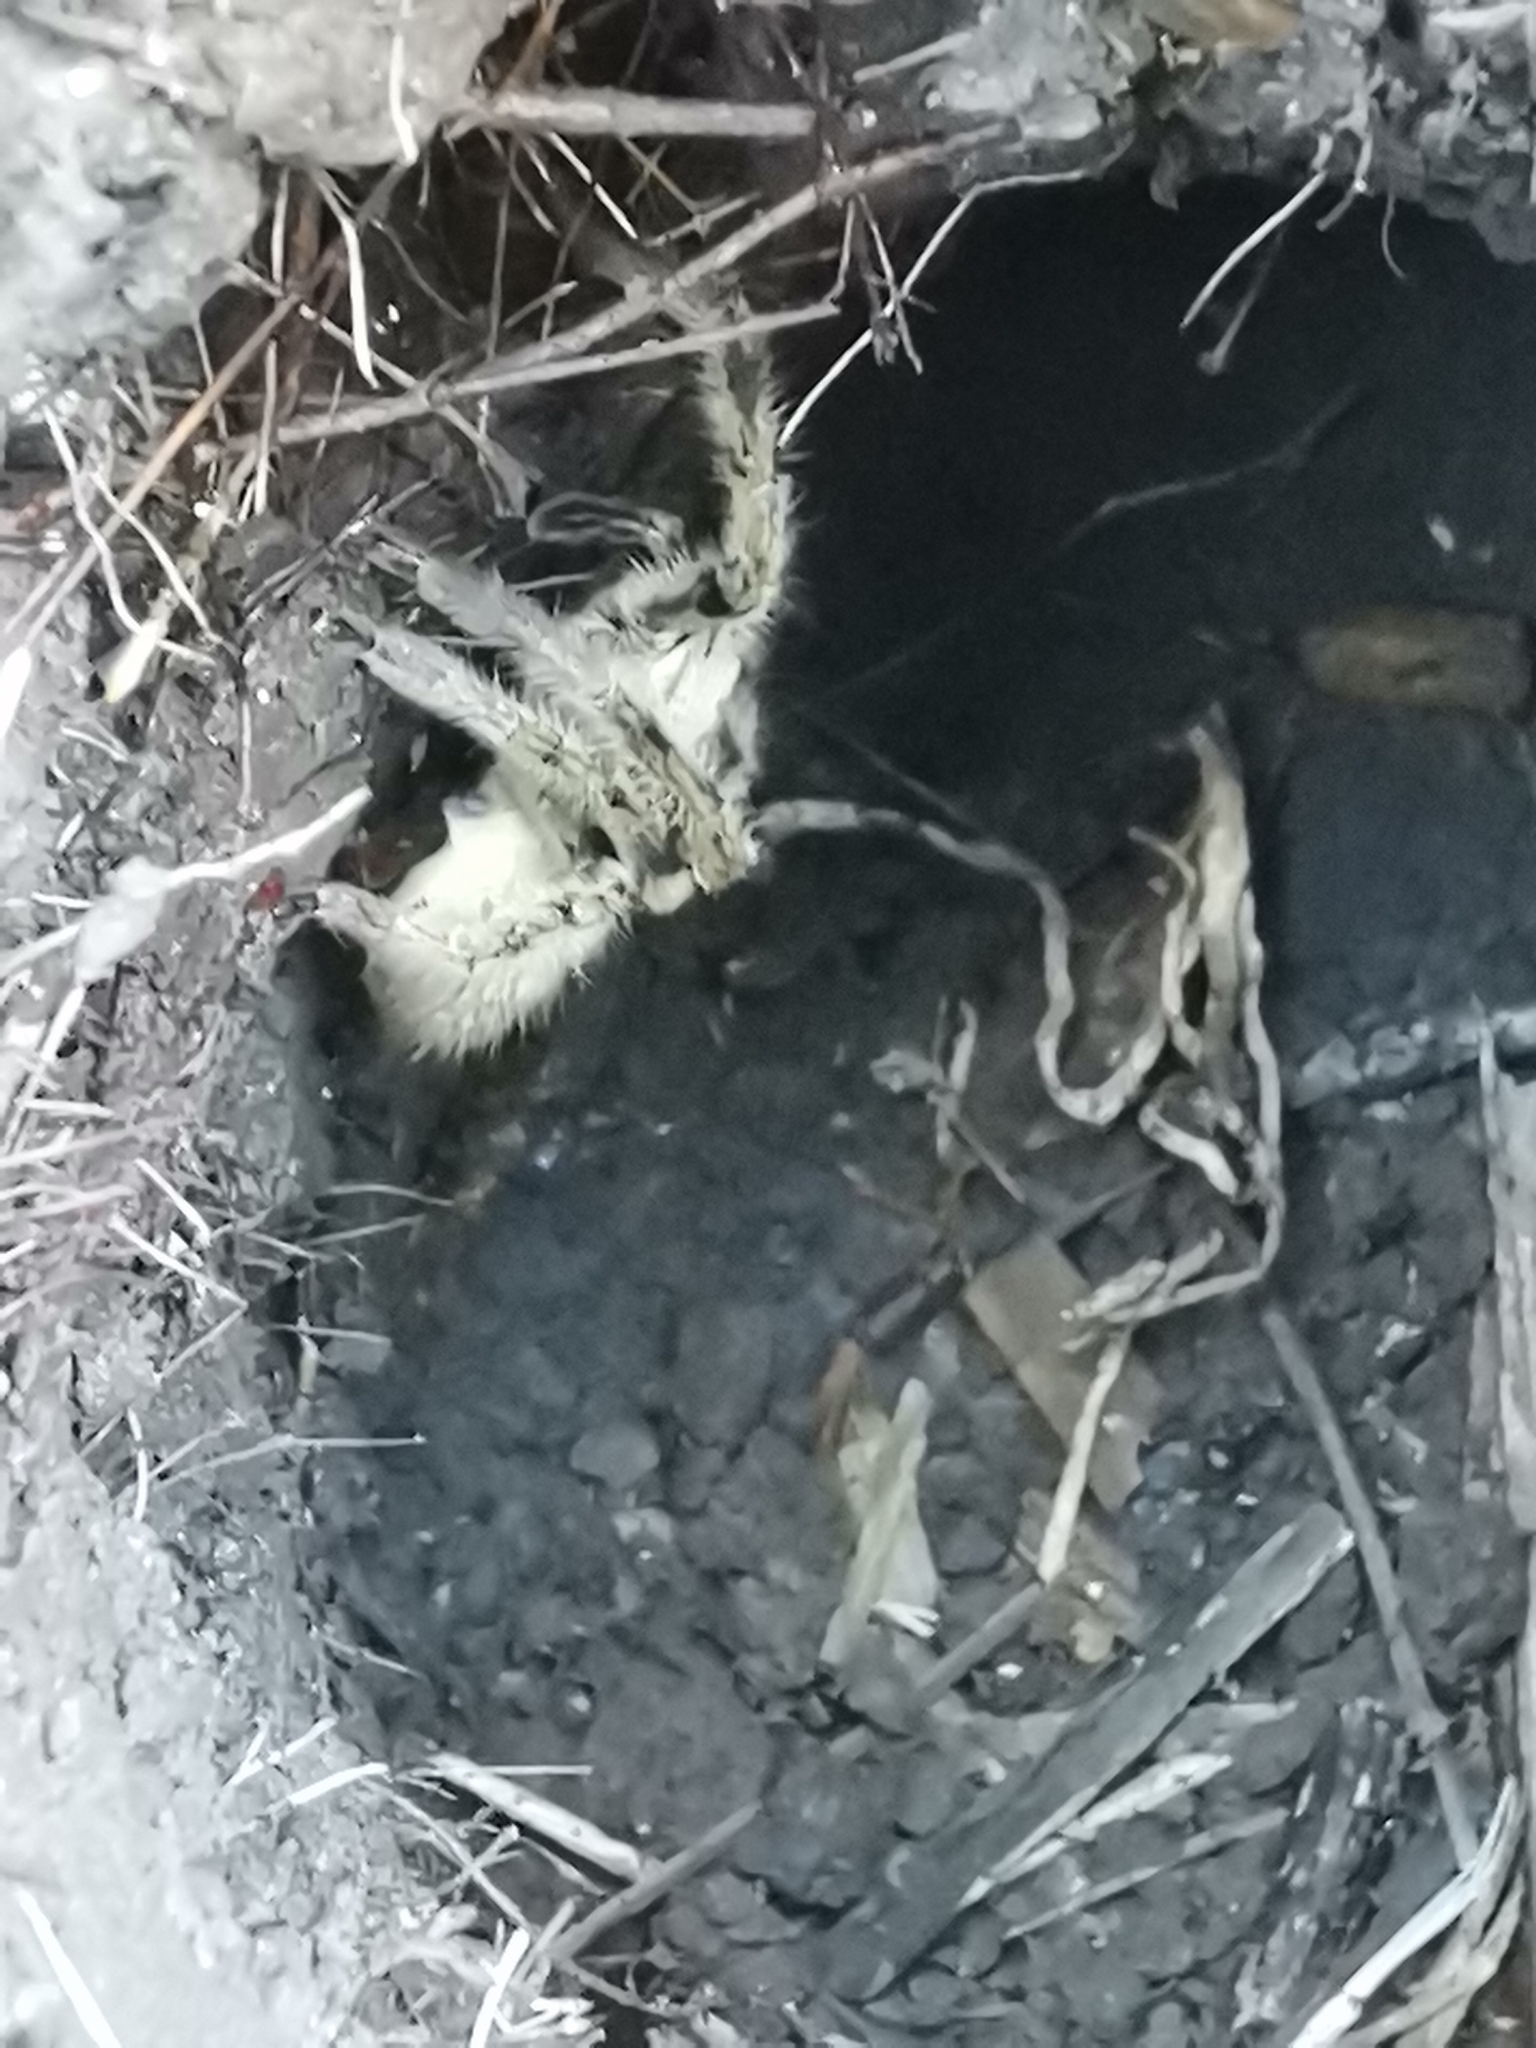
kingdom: Animalia
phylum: Arthropoda
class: Arachnida
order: Araneae
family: Sparassidae
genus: Polybetes
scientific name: Polybetes pythagoricus
